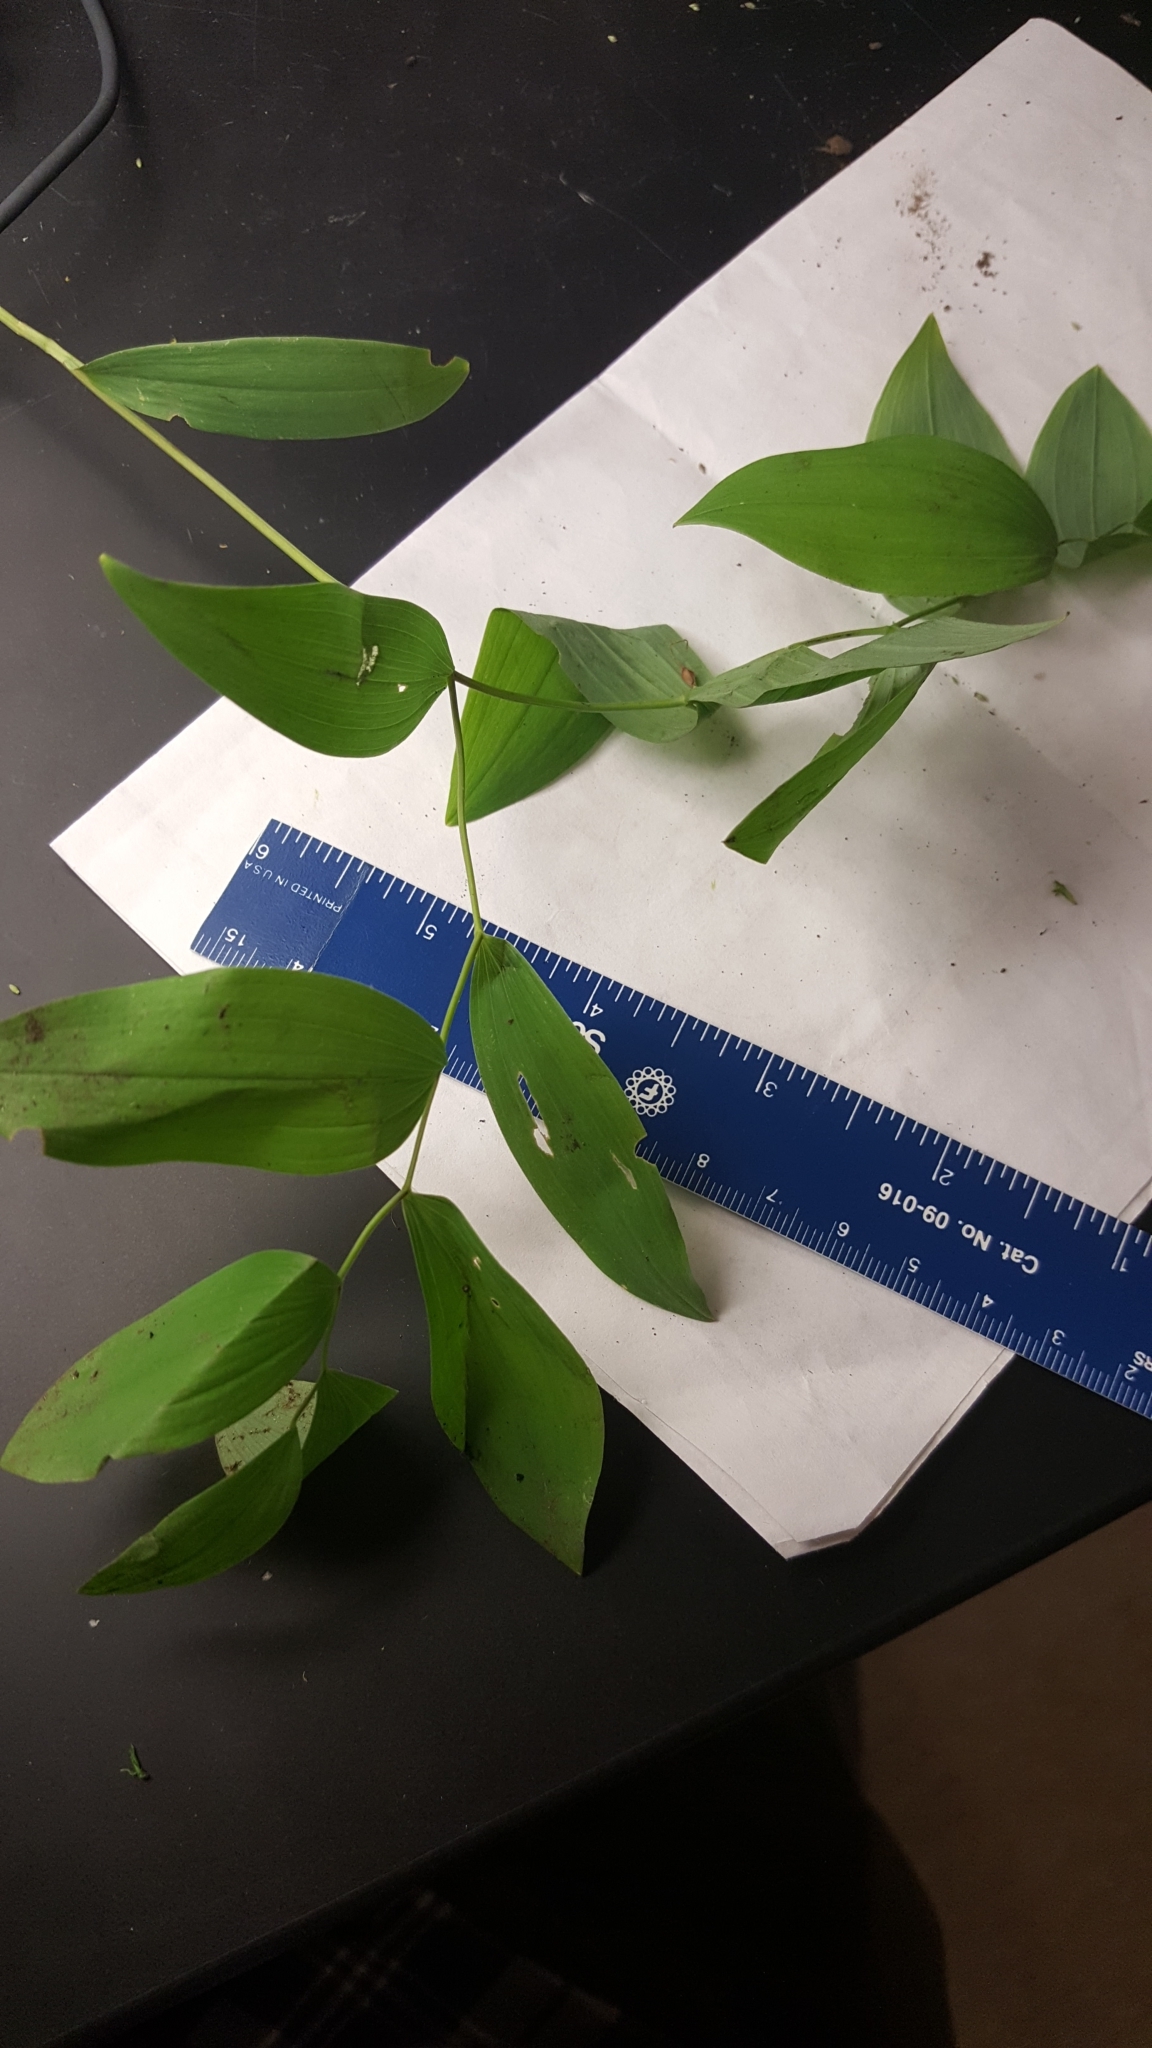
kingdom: Plantae
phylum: Tracheophyta
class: Liliopsida
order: Liliales
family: Colchicaceae
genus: Uvularia
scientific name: Uvularia sessilifolia
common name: Straw-lily
